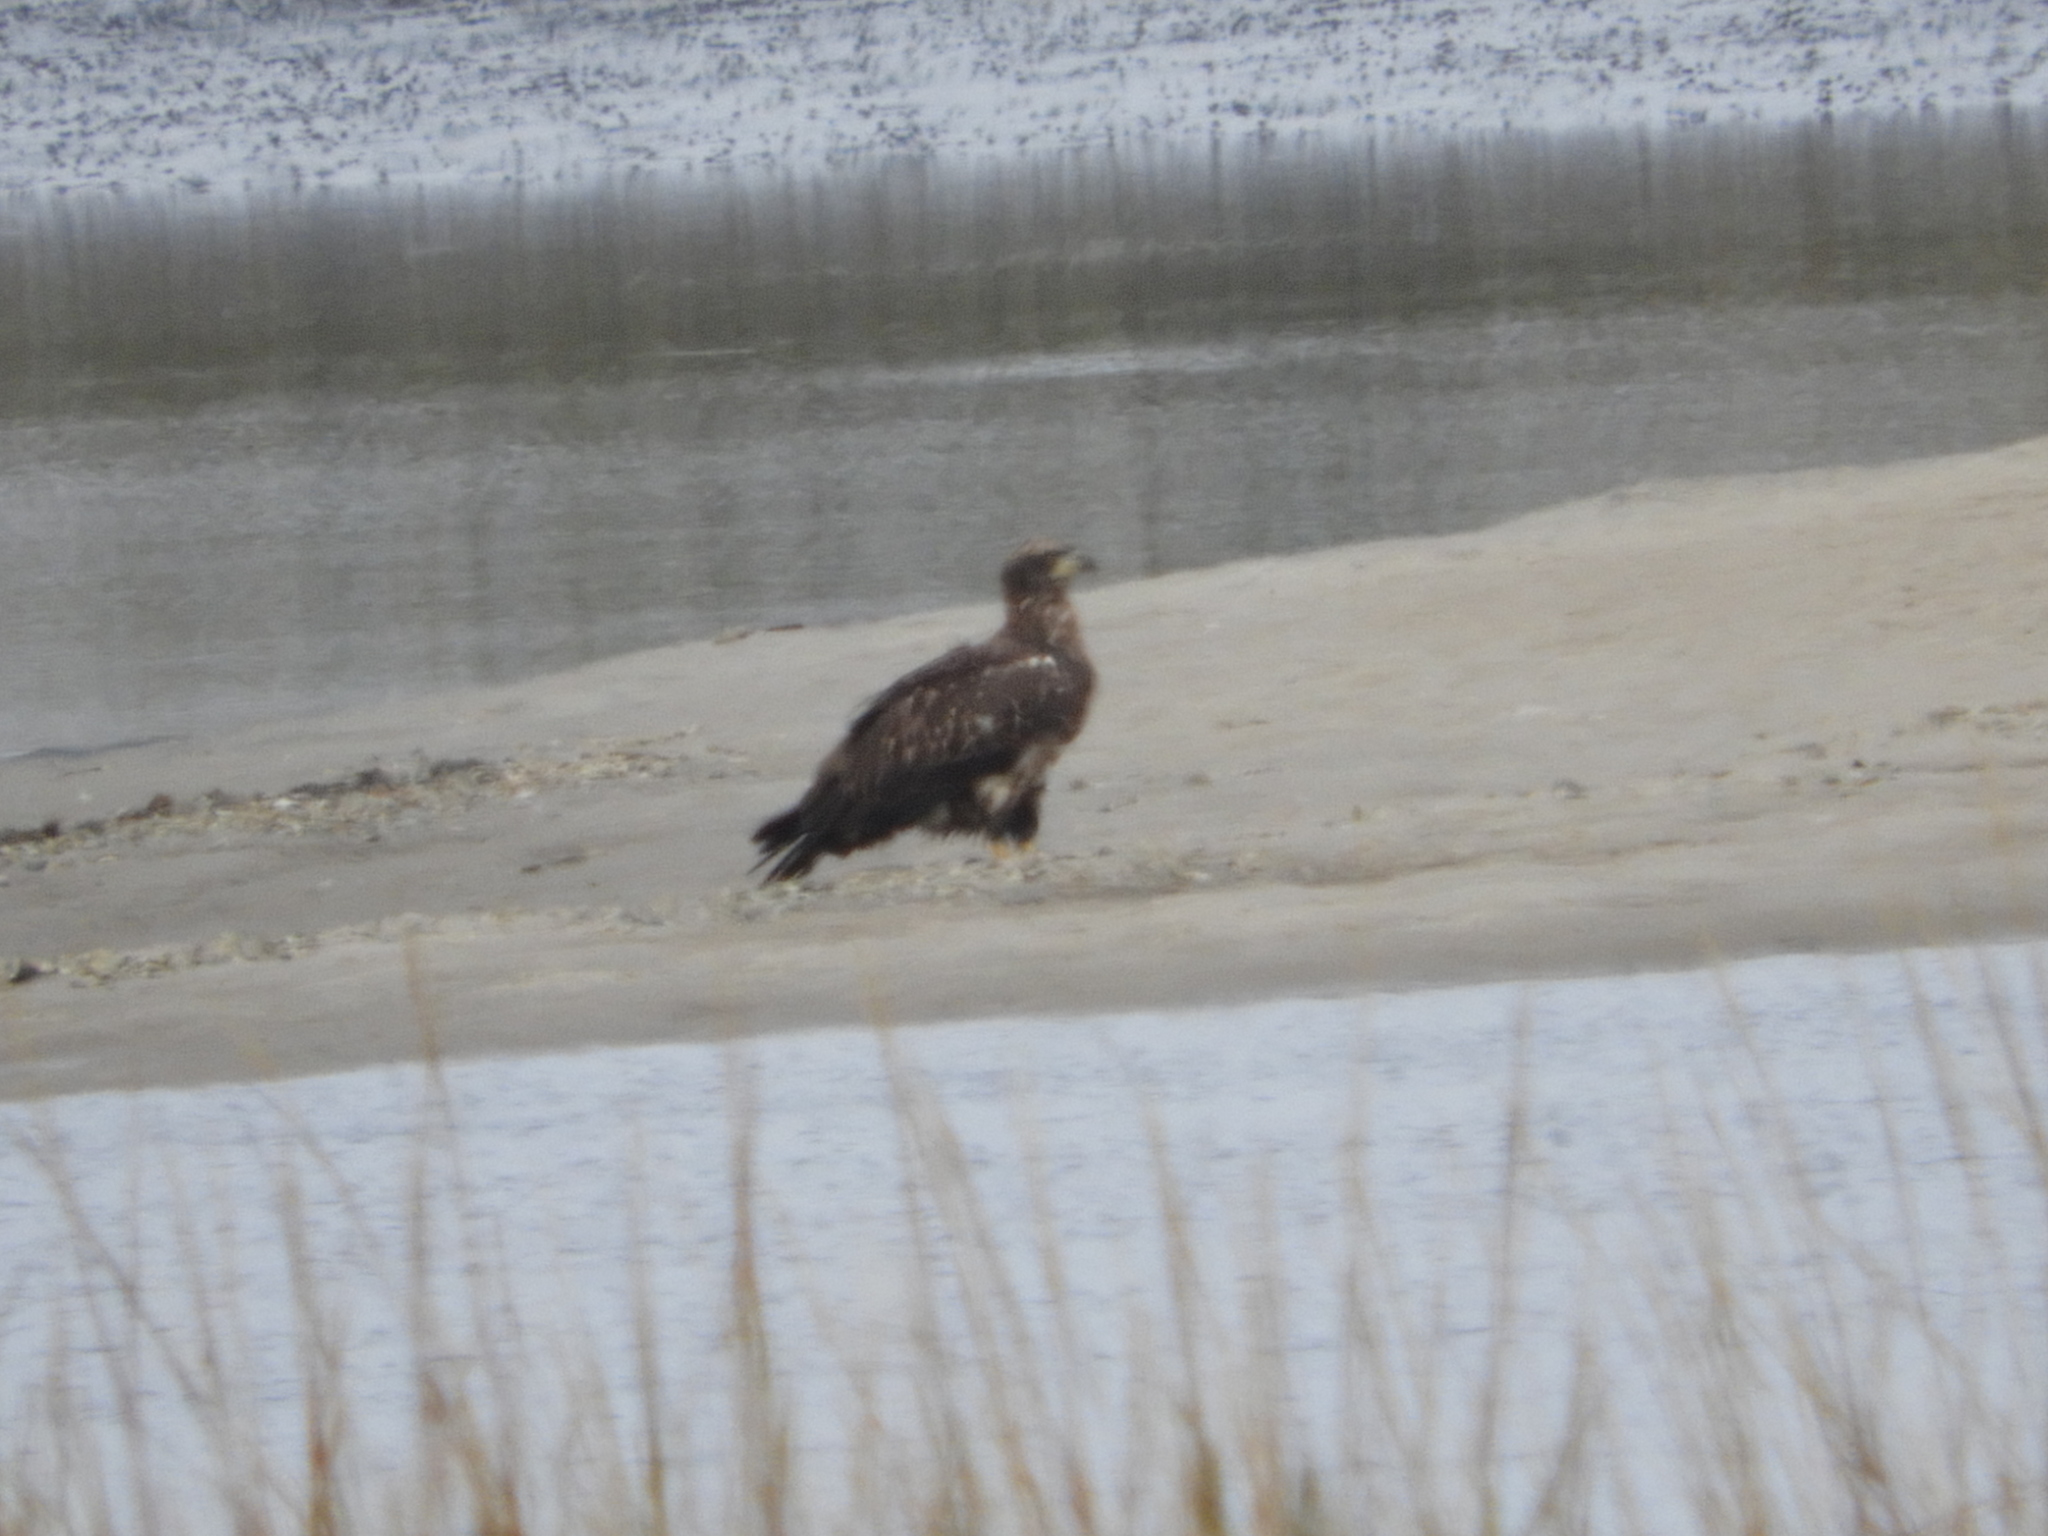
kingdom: Animalia
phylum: Chordata
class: Aves
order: Accipitriformes
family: Accipitridae
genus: Haliaeetus
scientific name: Haliaeetus leucocephalus
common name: Bald eagle
